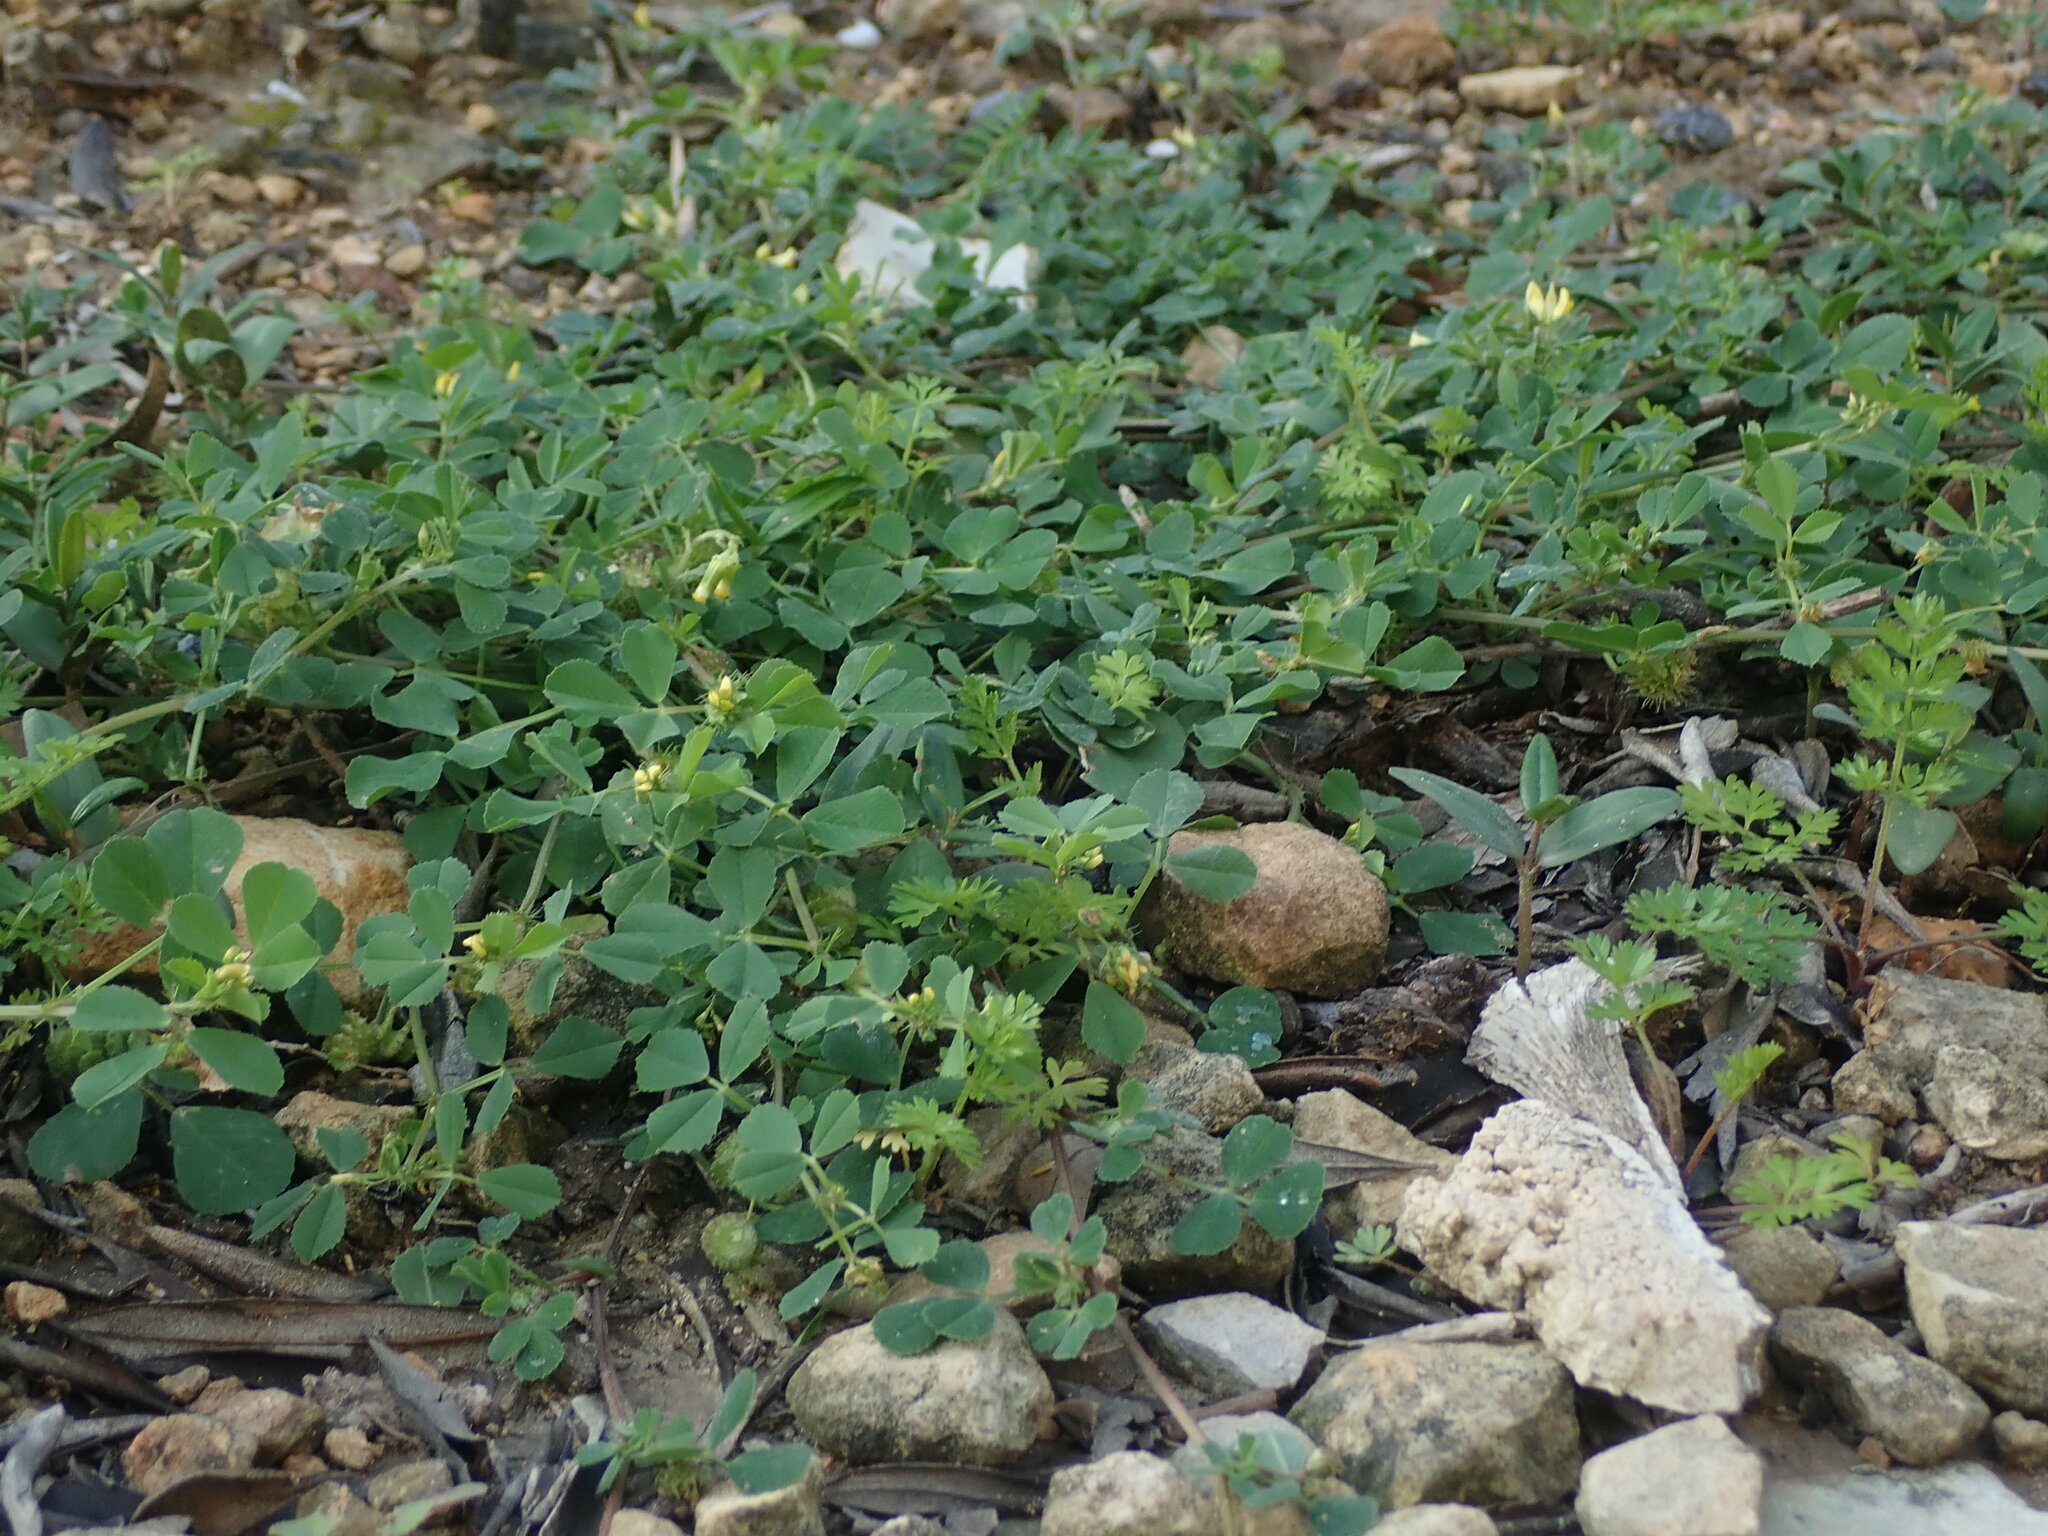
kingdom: Plantae
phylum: Tracheophyta
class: Magnoliopsida
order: Fabales
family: Fabaceae
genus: Medicago
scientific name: Medicago polymorpha
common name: Burclover
